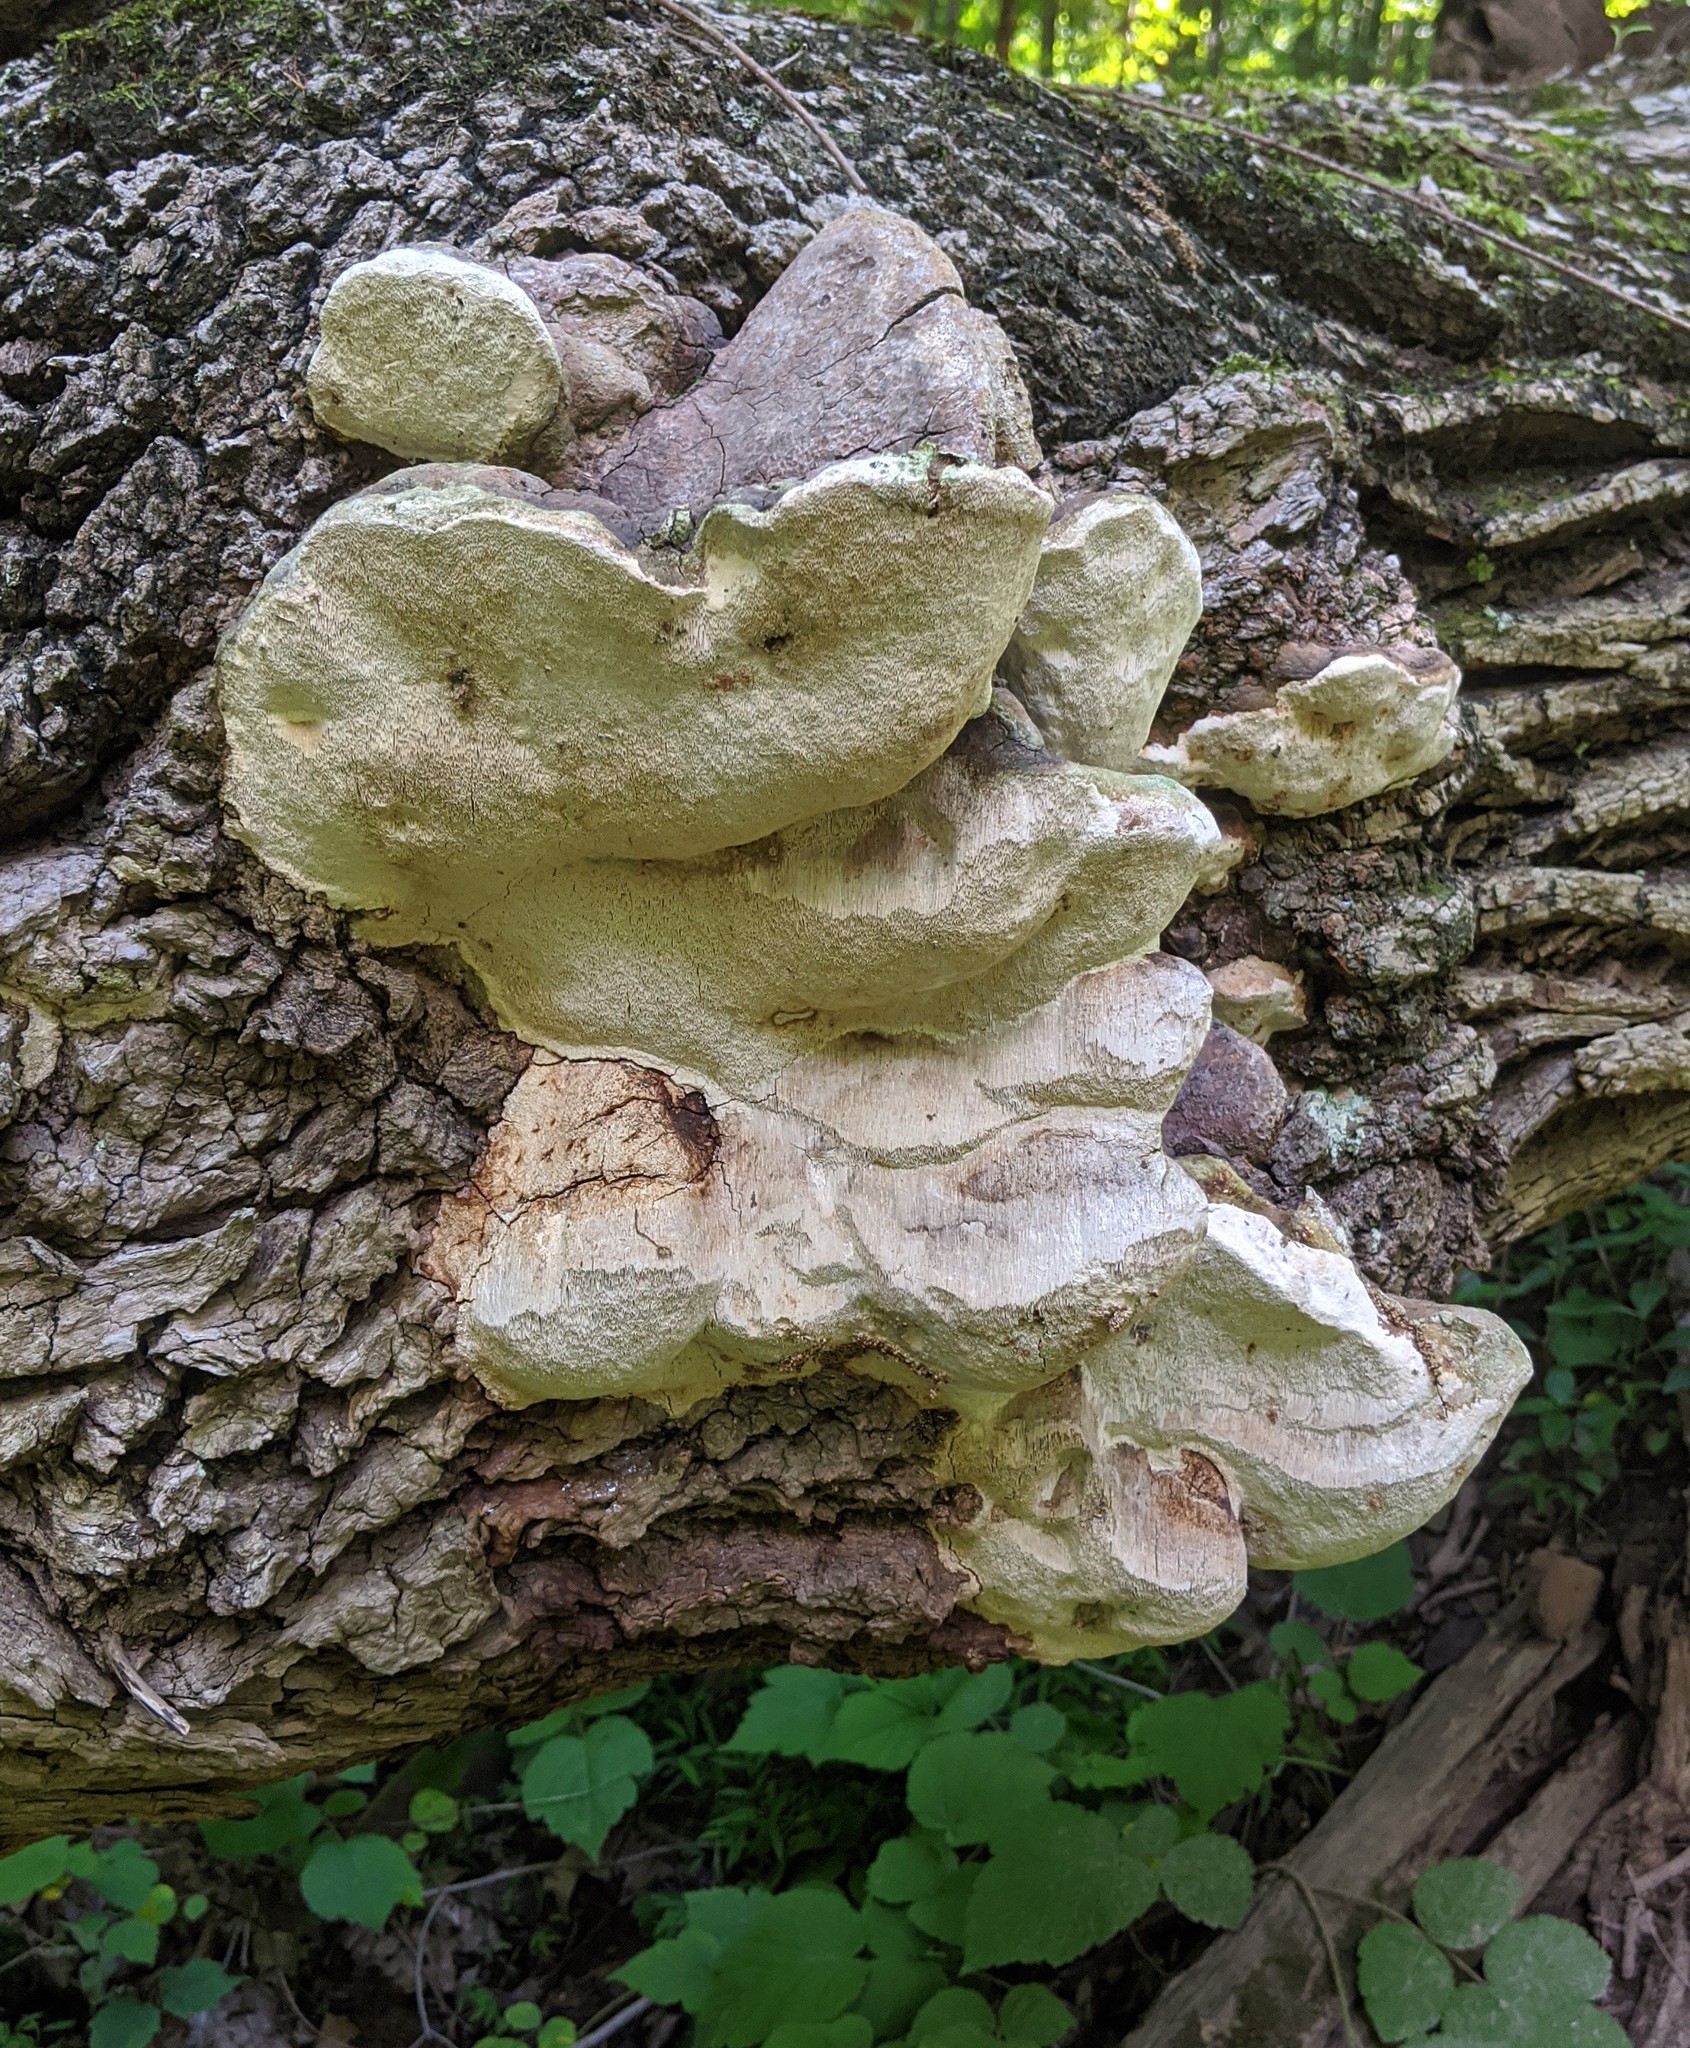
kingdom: Fungi
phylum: Basidiomycota
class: Agaricomycetes
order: Polyporales
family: Polyporaceae
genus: Perenniporia
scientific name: Perenniporia fraxinophila
